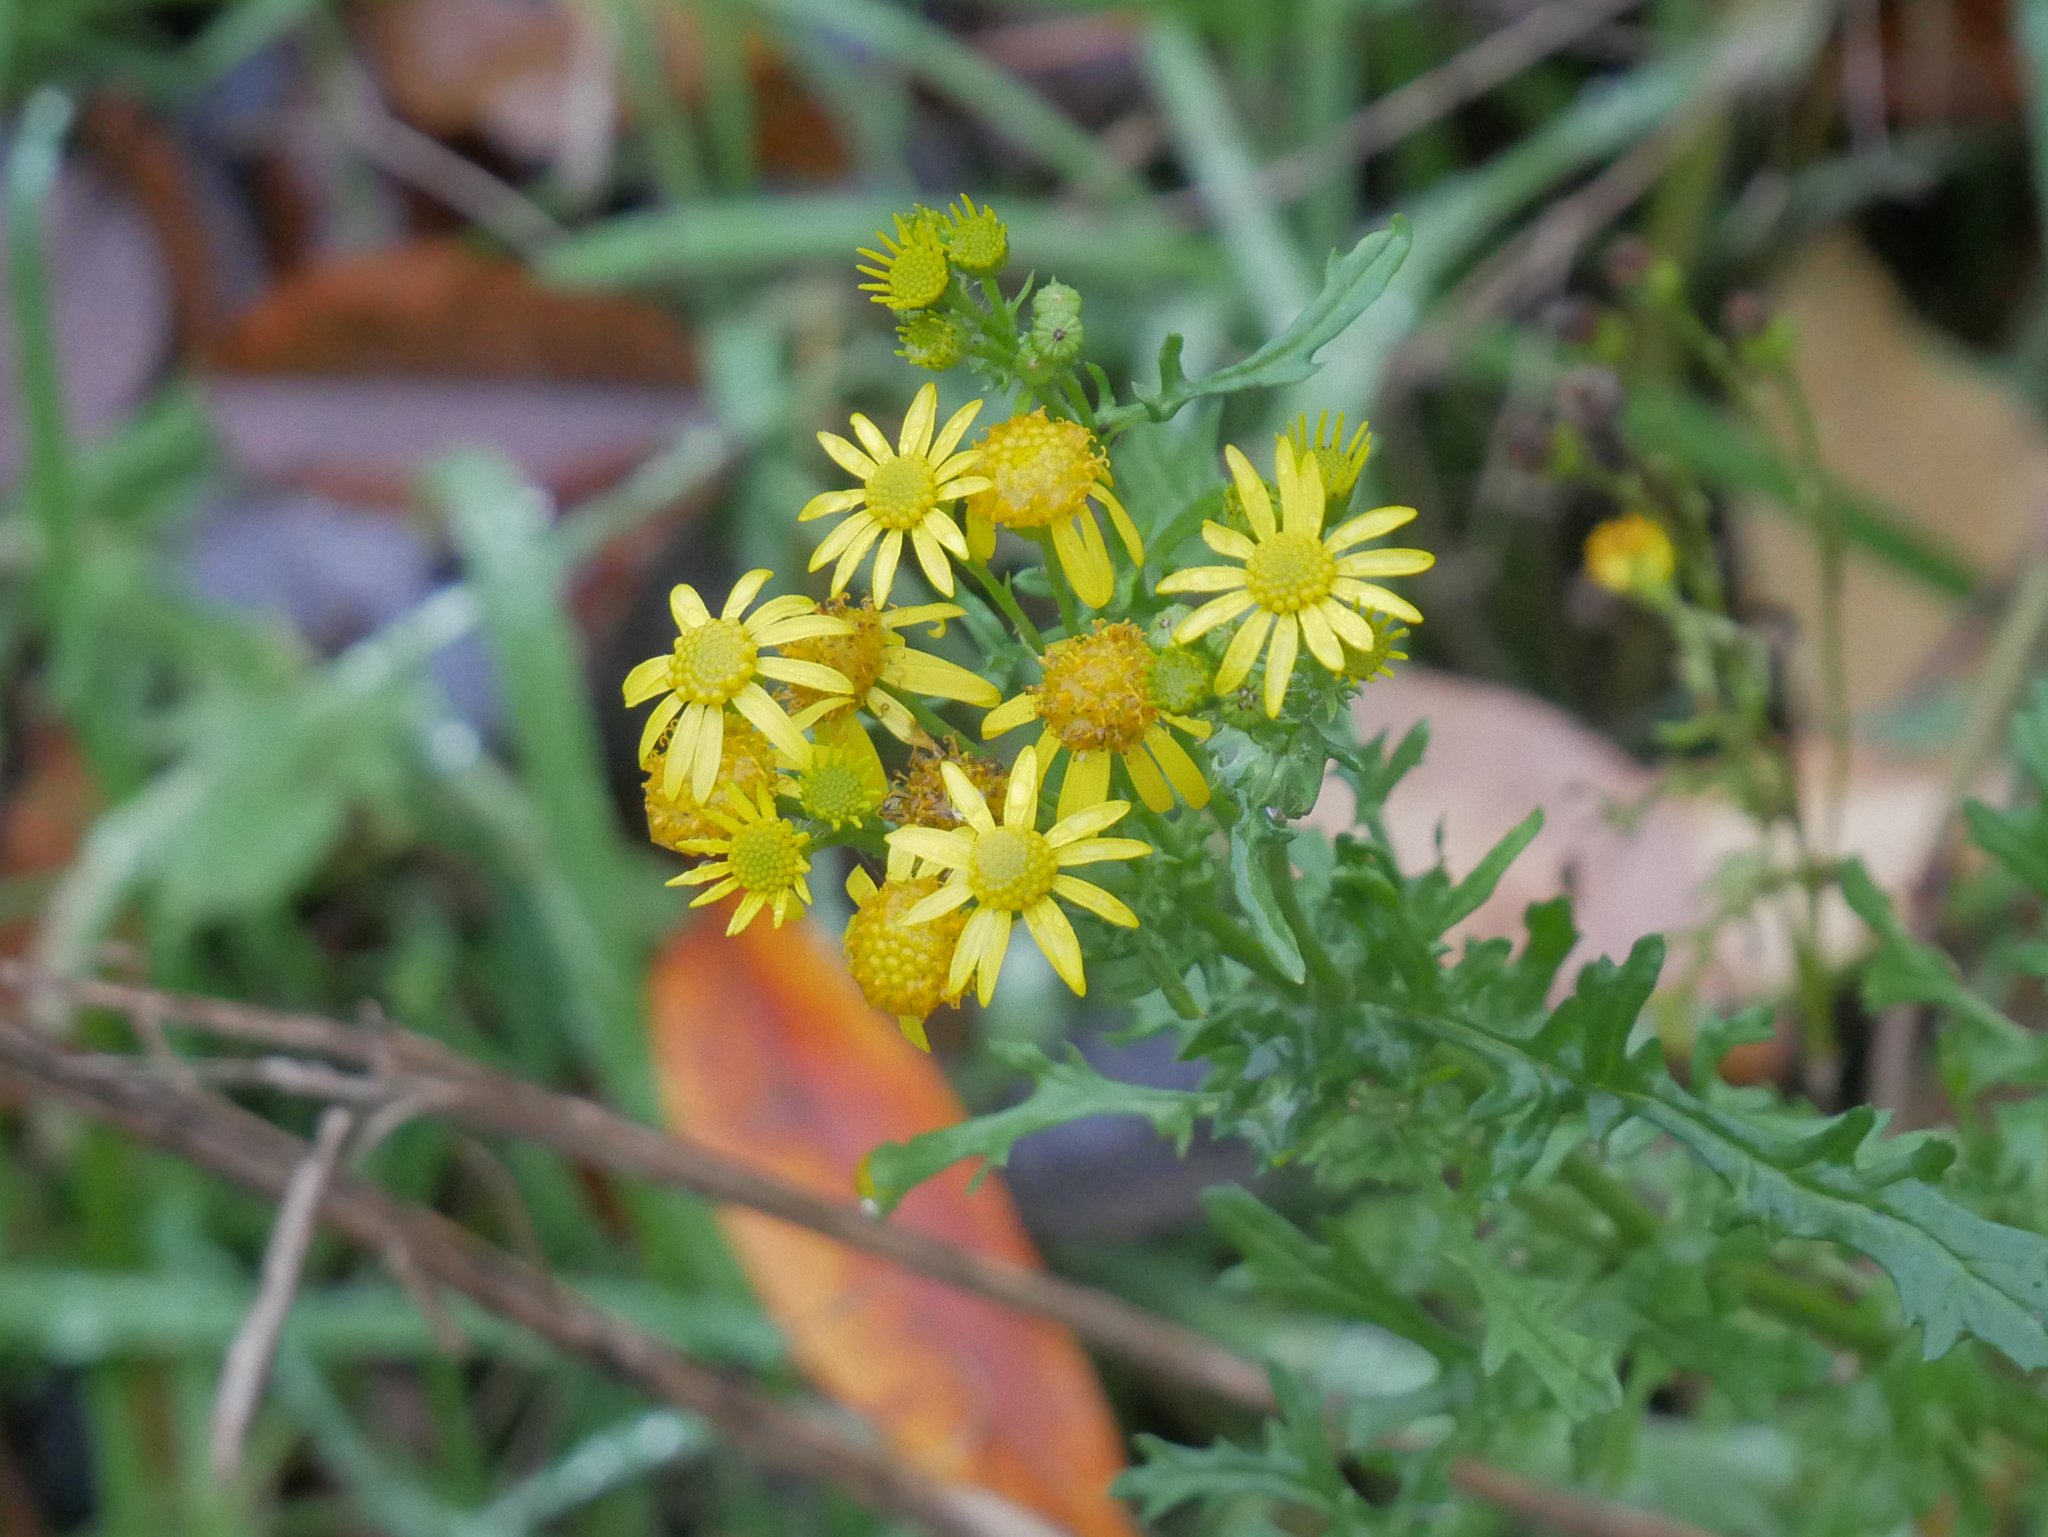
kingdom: Plantae
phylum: Tracheophyta
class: Magnoliopsida
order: Asterales
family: Asteraceae
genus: Jacobaea
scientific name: Jacobaea vulgaris
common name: Stinking willie
